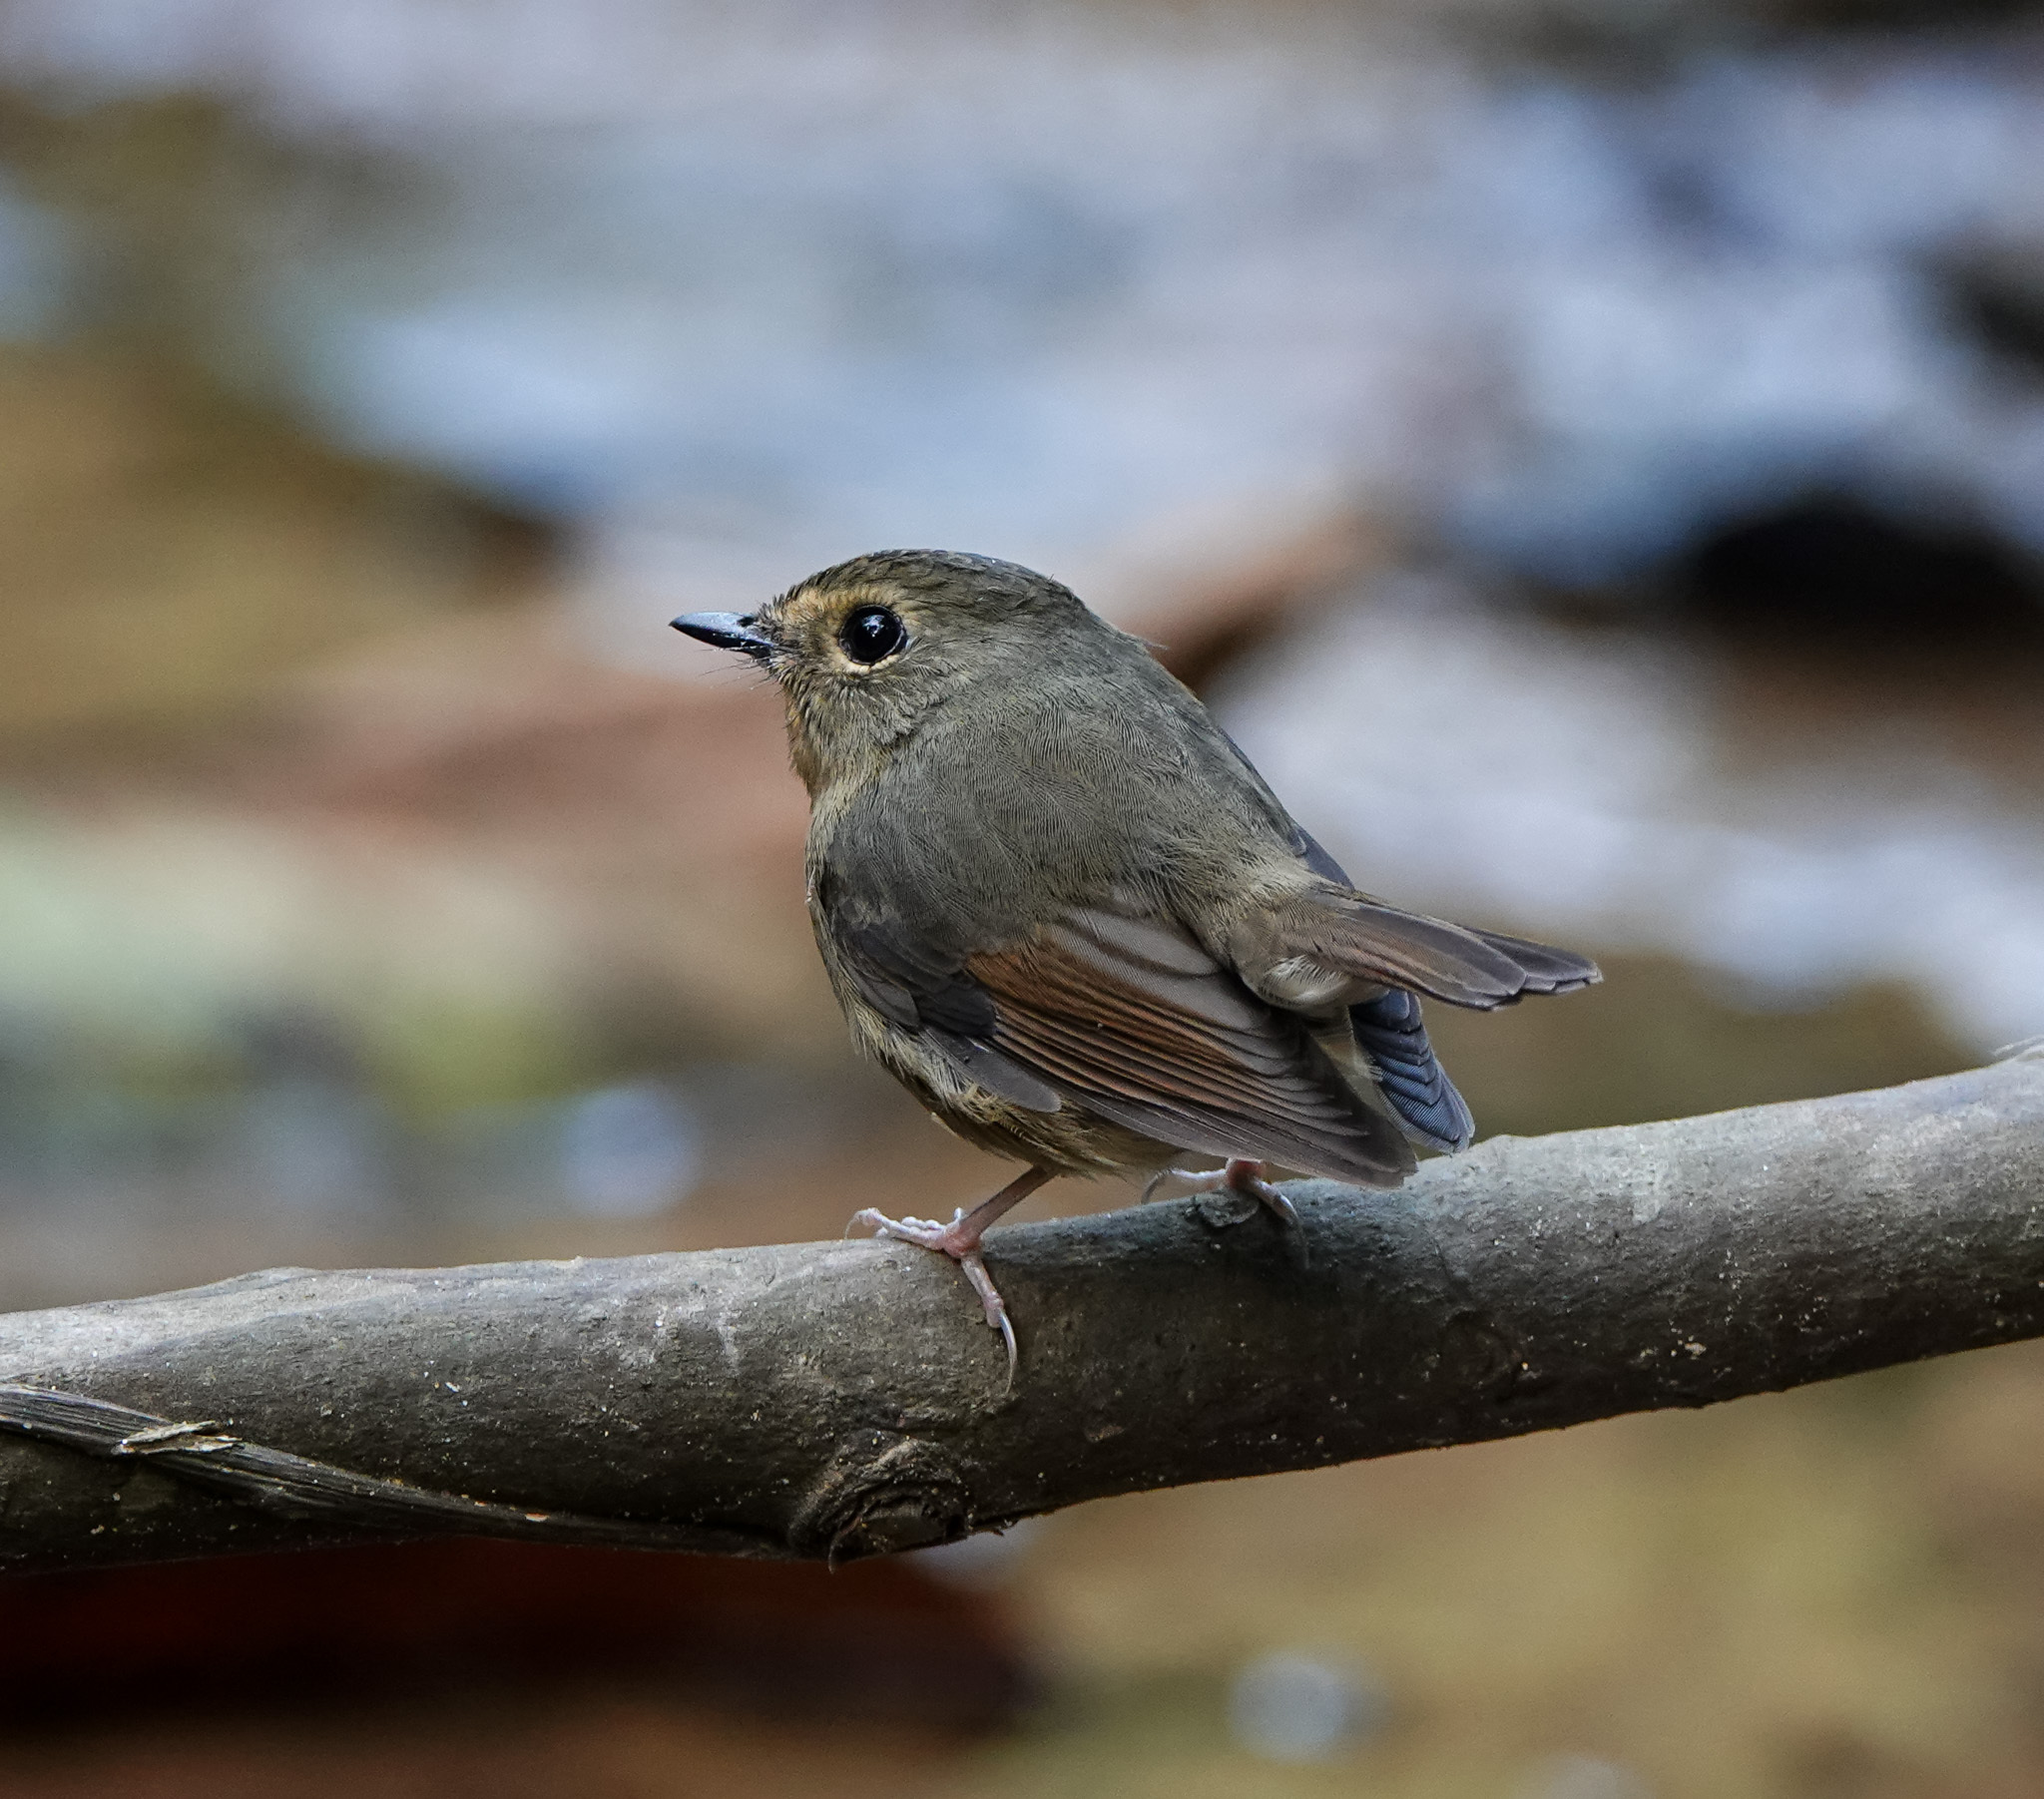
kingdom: Animalia
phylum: Chordata
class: Aves
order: Passeriformes
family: Muscicapidae
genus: Ficedula
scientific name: Ficedula hyperythra
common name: Snowy-browed flycatcher
